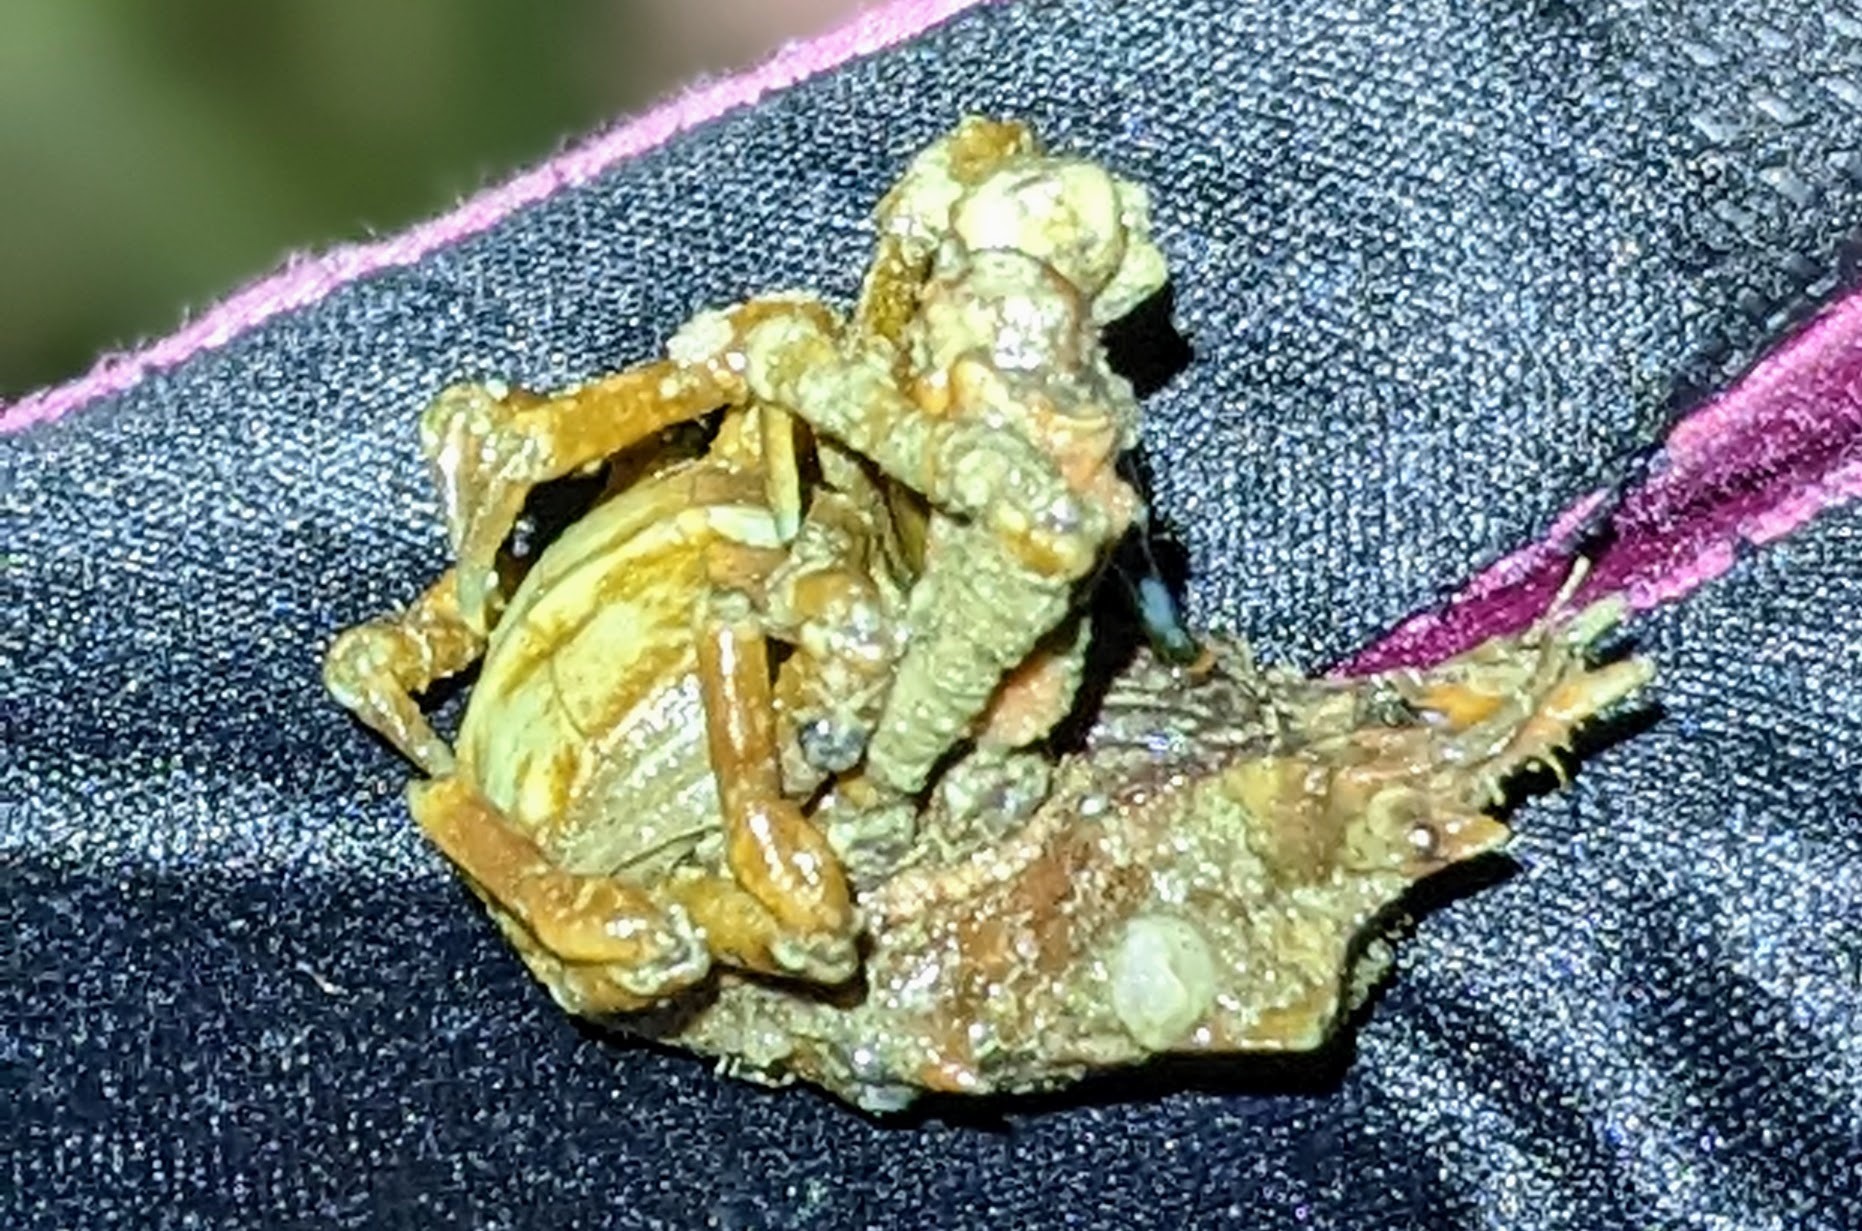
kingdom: Animalia
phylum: Arthropoda
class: Malacostraca
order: Decapoda
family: Epialtidae
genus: Pugettia
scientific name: Pugettia gracilis
